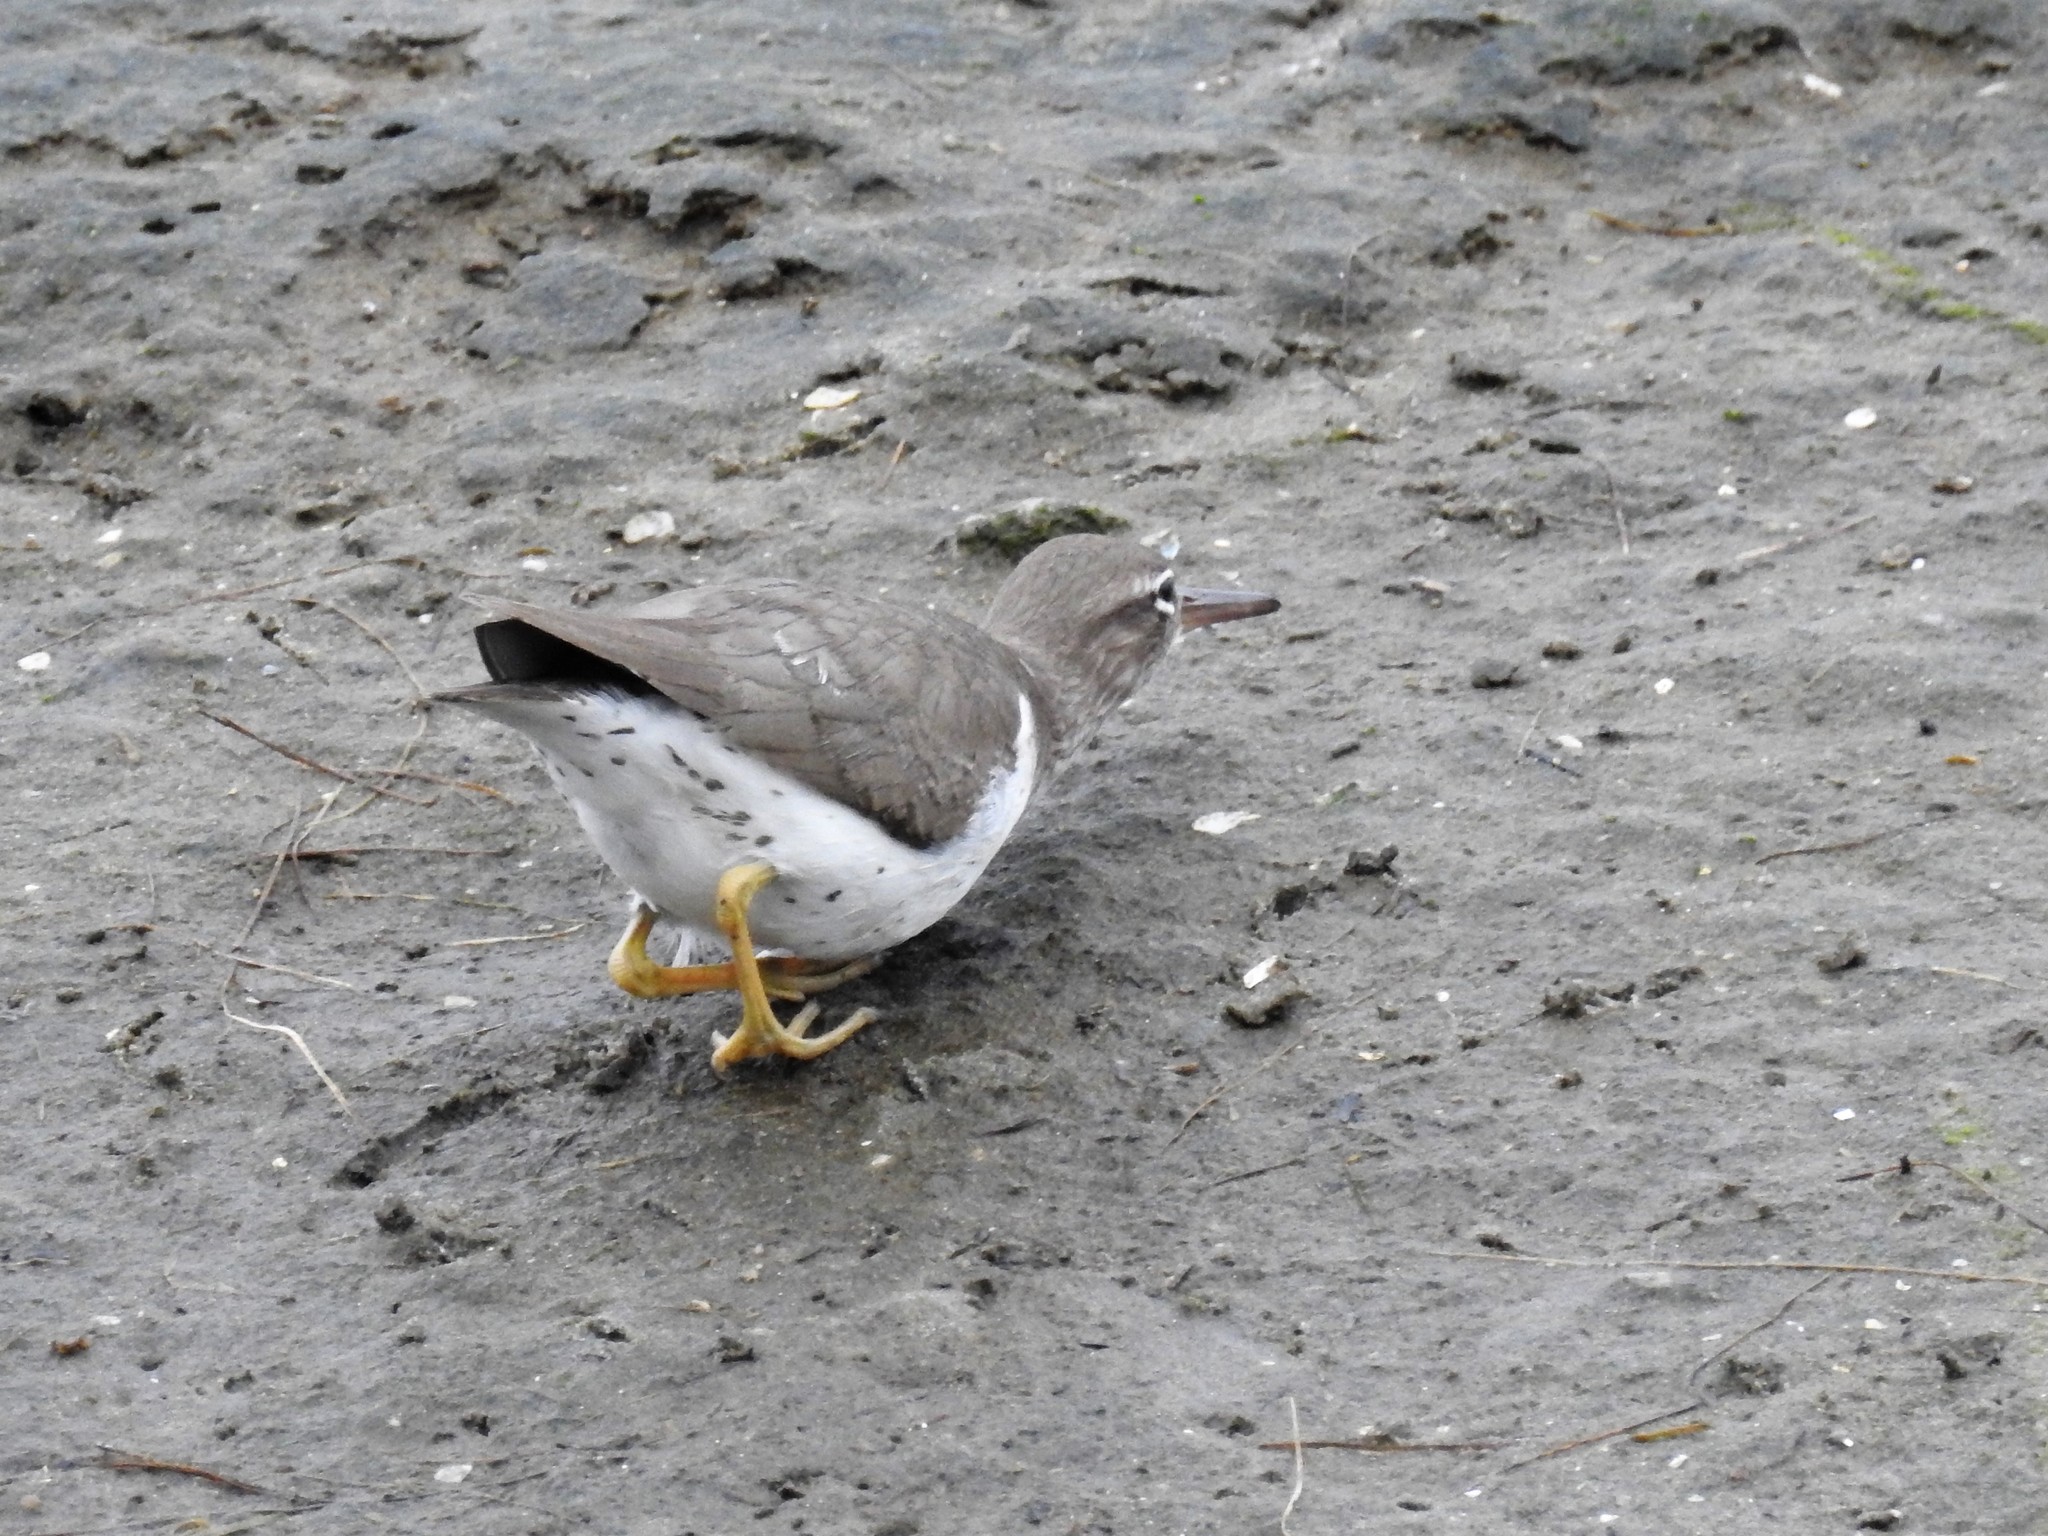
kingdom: Animalia
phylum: Chordata
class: Aves
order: Charadriiformes
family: Scolopacidae
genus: Actitis
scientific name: Actitis macularius
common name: Spotted sandpiper
